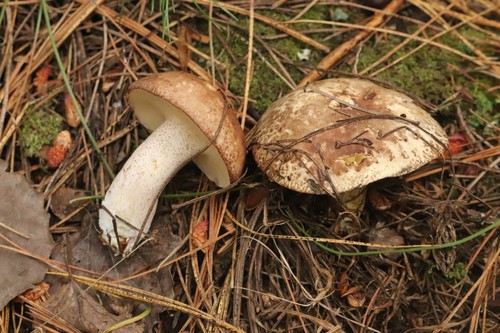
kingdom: Fungi
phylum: Basidiomycota
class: Agaricomycetes
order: Boletales
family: Suillaceae
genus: Suillus
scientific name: Suillus placidus
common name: Slippery white bolete
